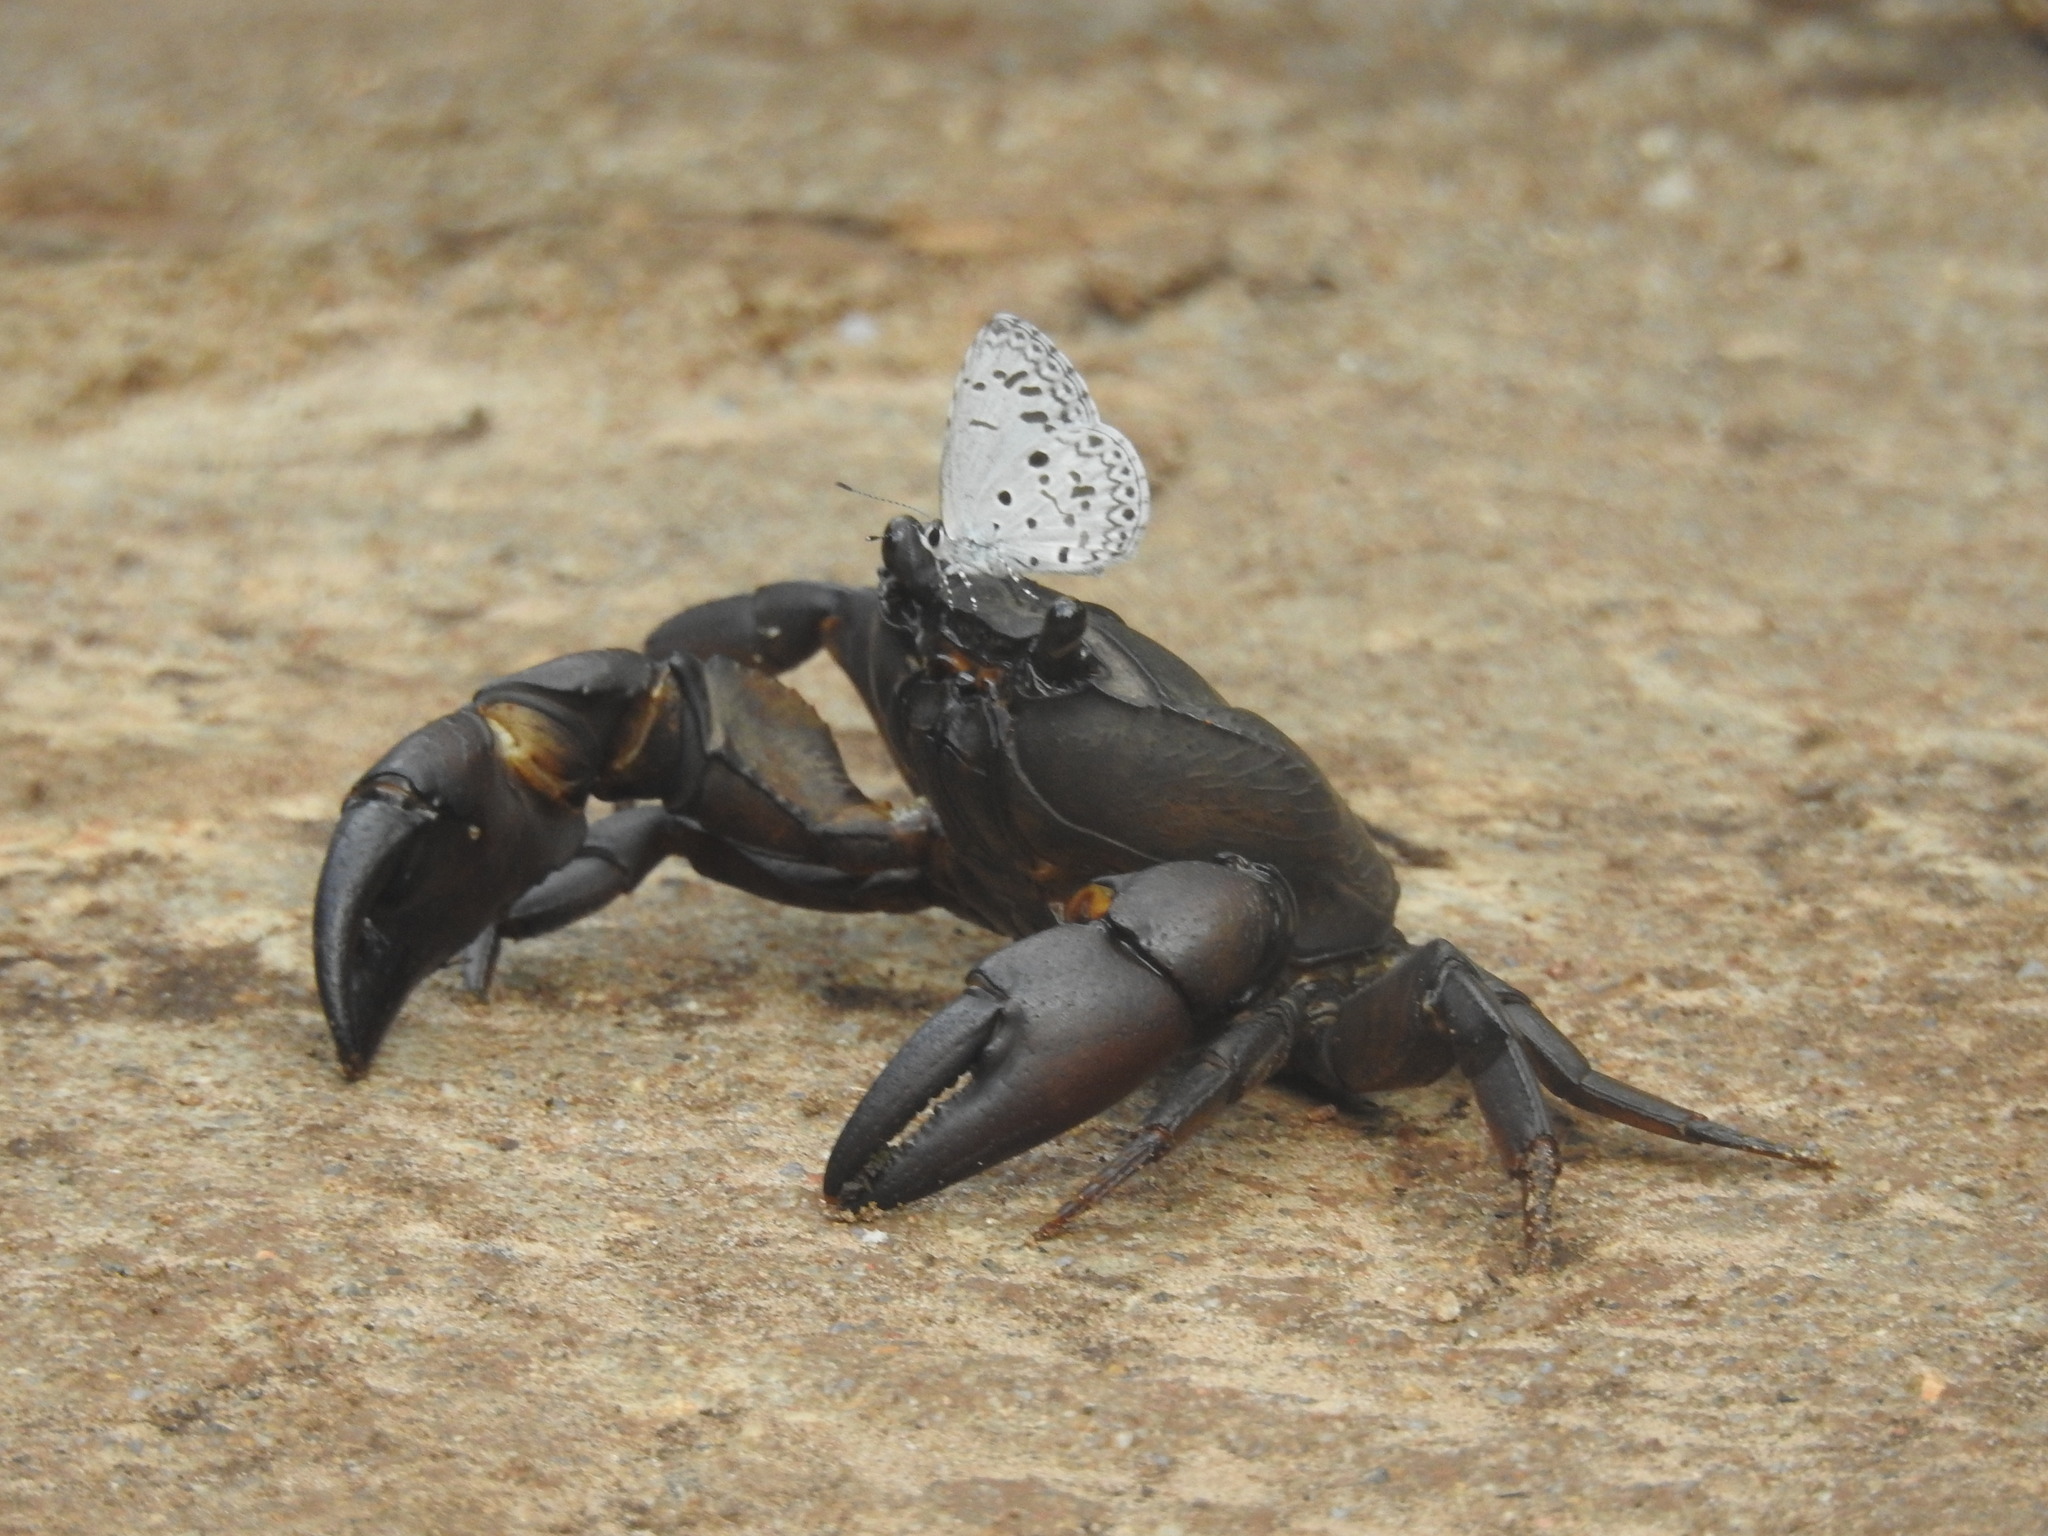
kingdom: Animalia
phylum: Arthropoda
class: Insecta
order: Lepidoptera
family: Lycaenidae
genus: Acytolepis
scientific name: Acytolepis puspa
